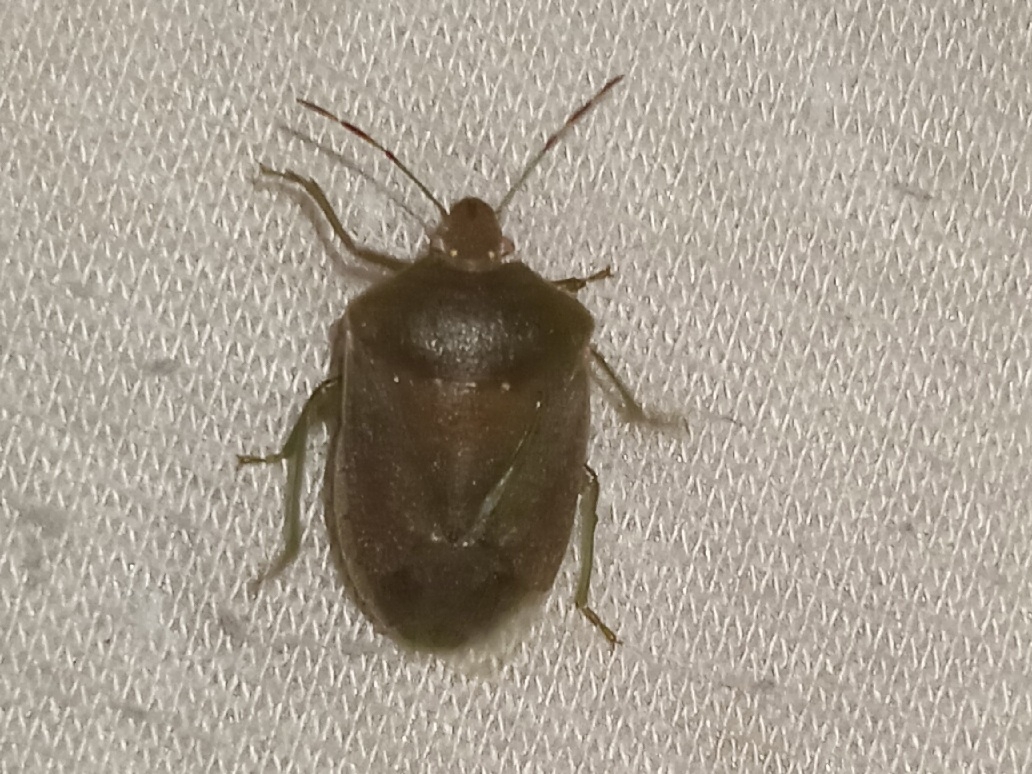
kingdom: Animalia
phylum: Arthropoda
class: Insecta
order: Hemiptera
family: Pentatomidae
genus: Nezara
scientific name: Nezara viridula
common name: Southern green stink bug
